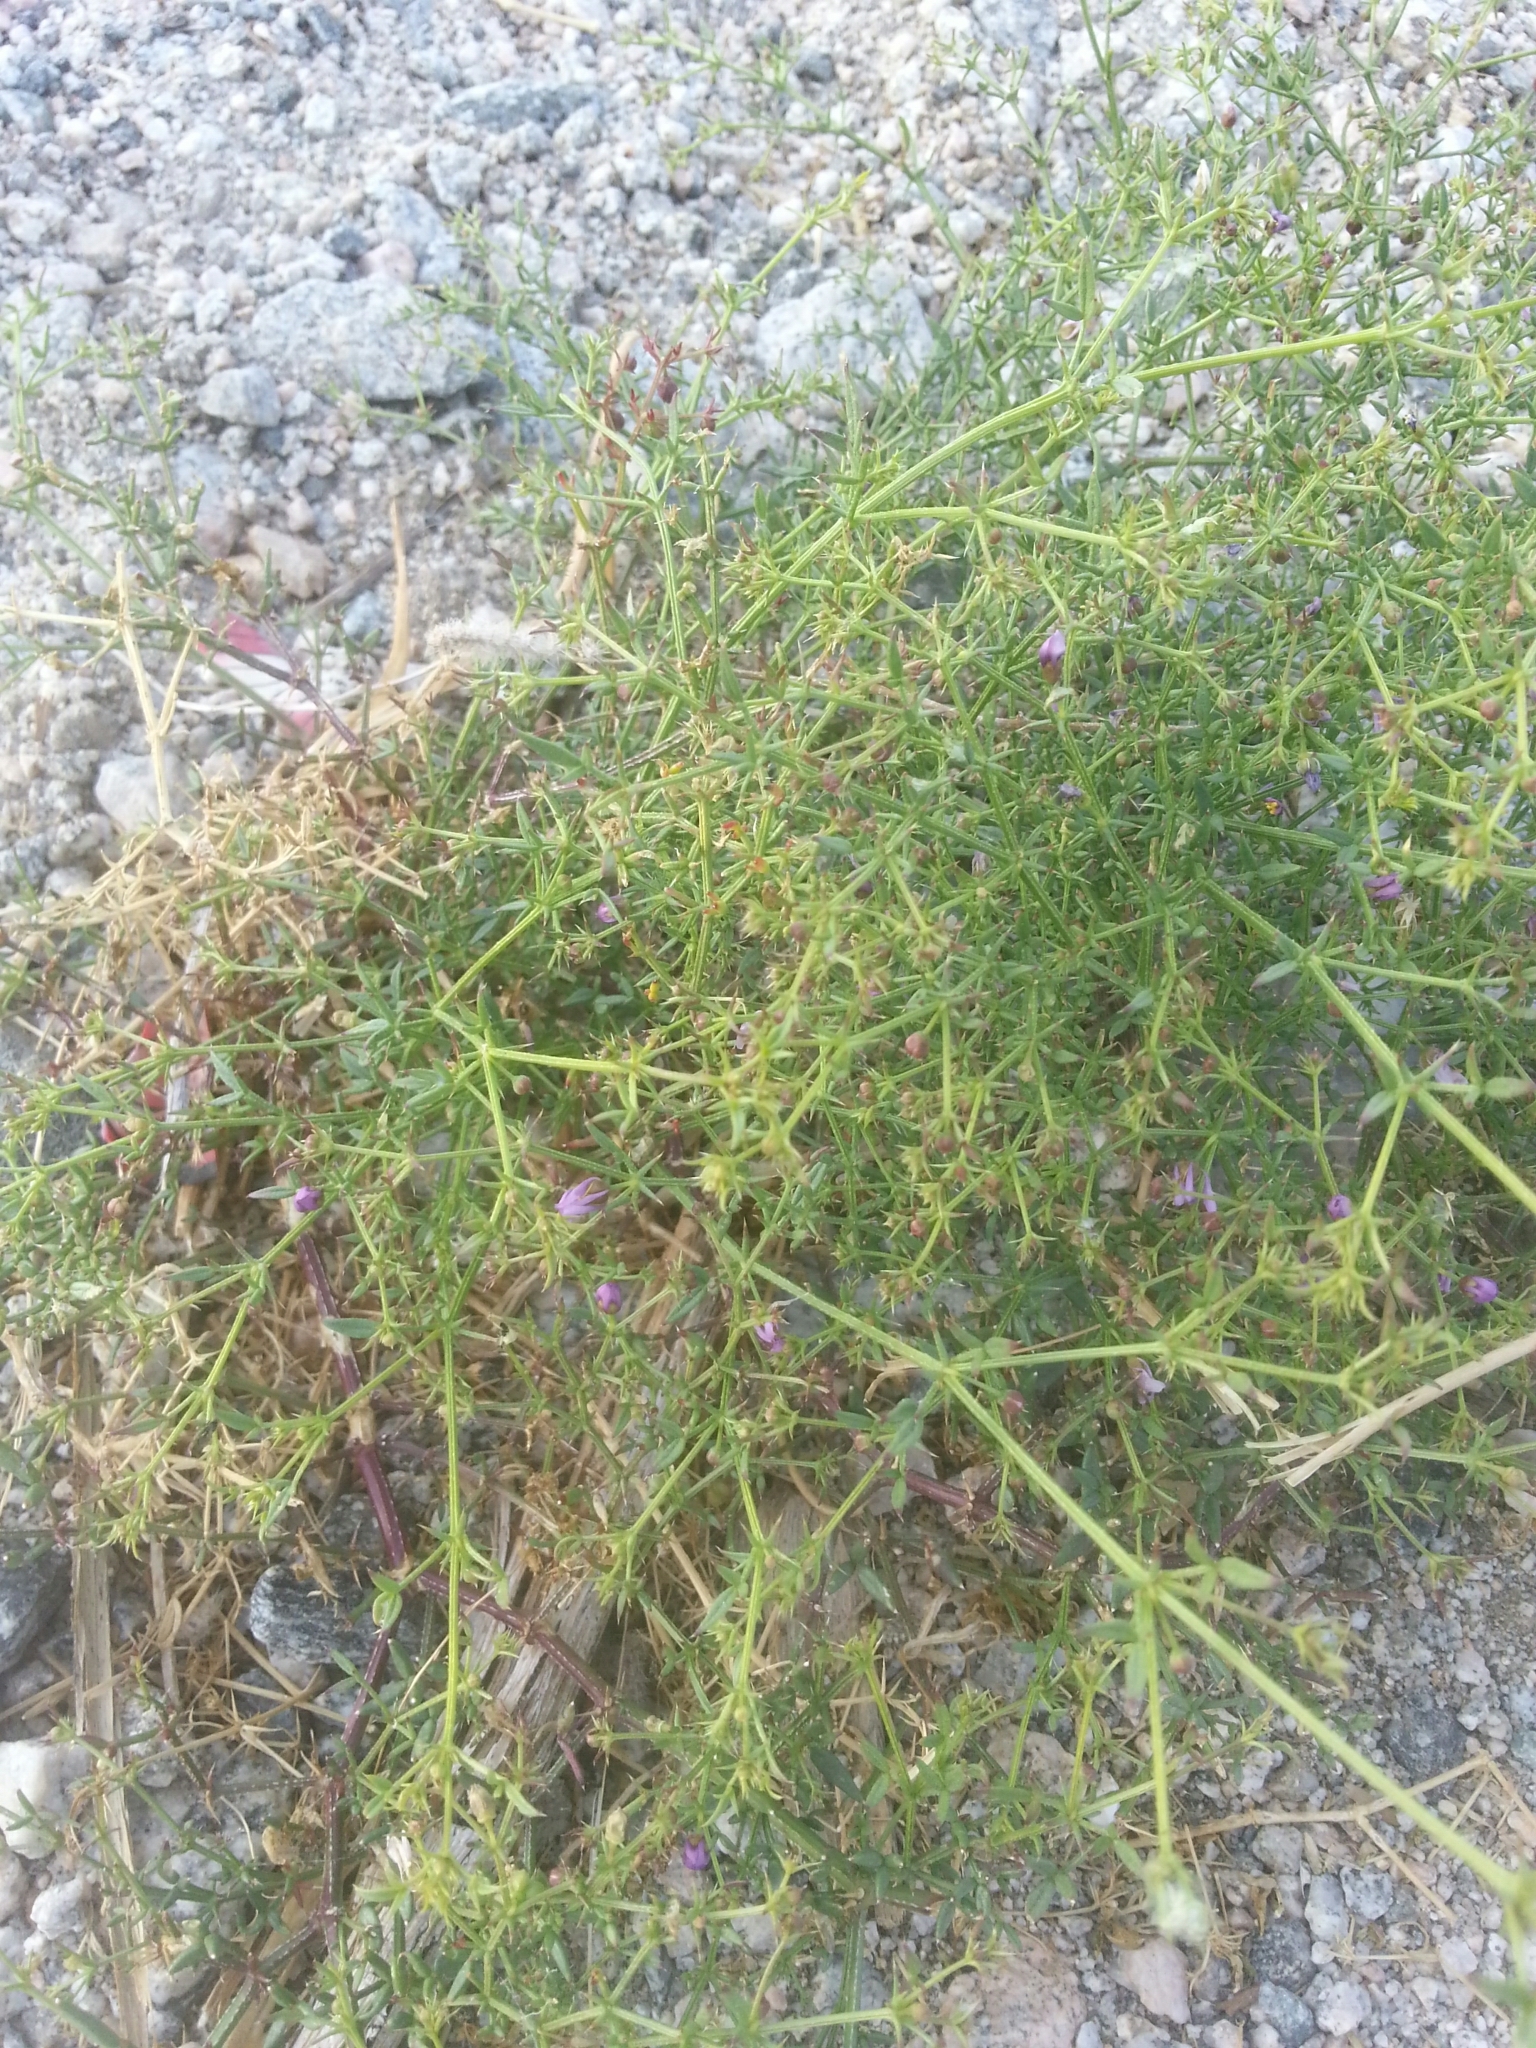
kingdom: Plantae
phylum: Tracheophyta
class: Magnoliopsida
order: Zygophyllales
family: Zygophyllaceae
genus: Fagonia
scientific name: Fagonia laevis
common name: California fagonbush
